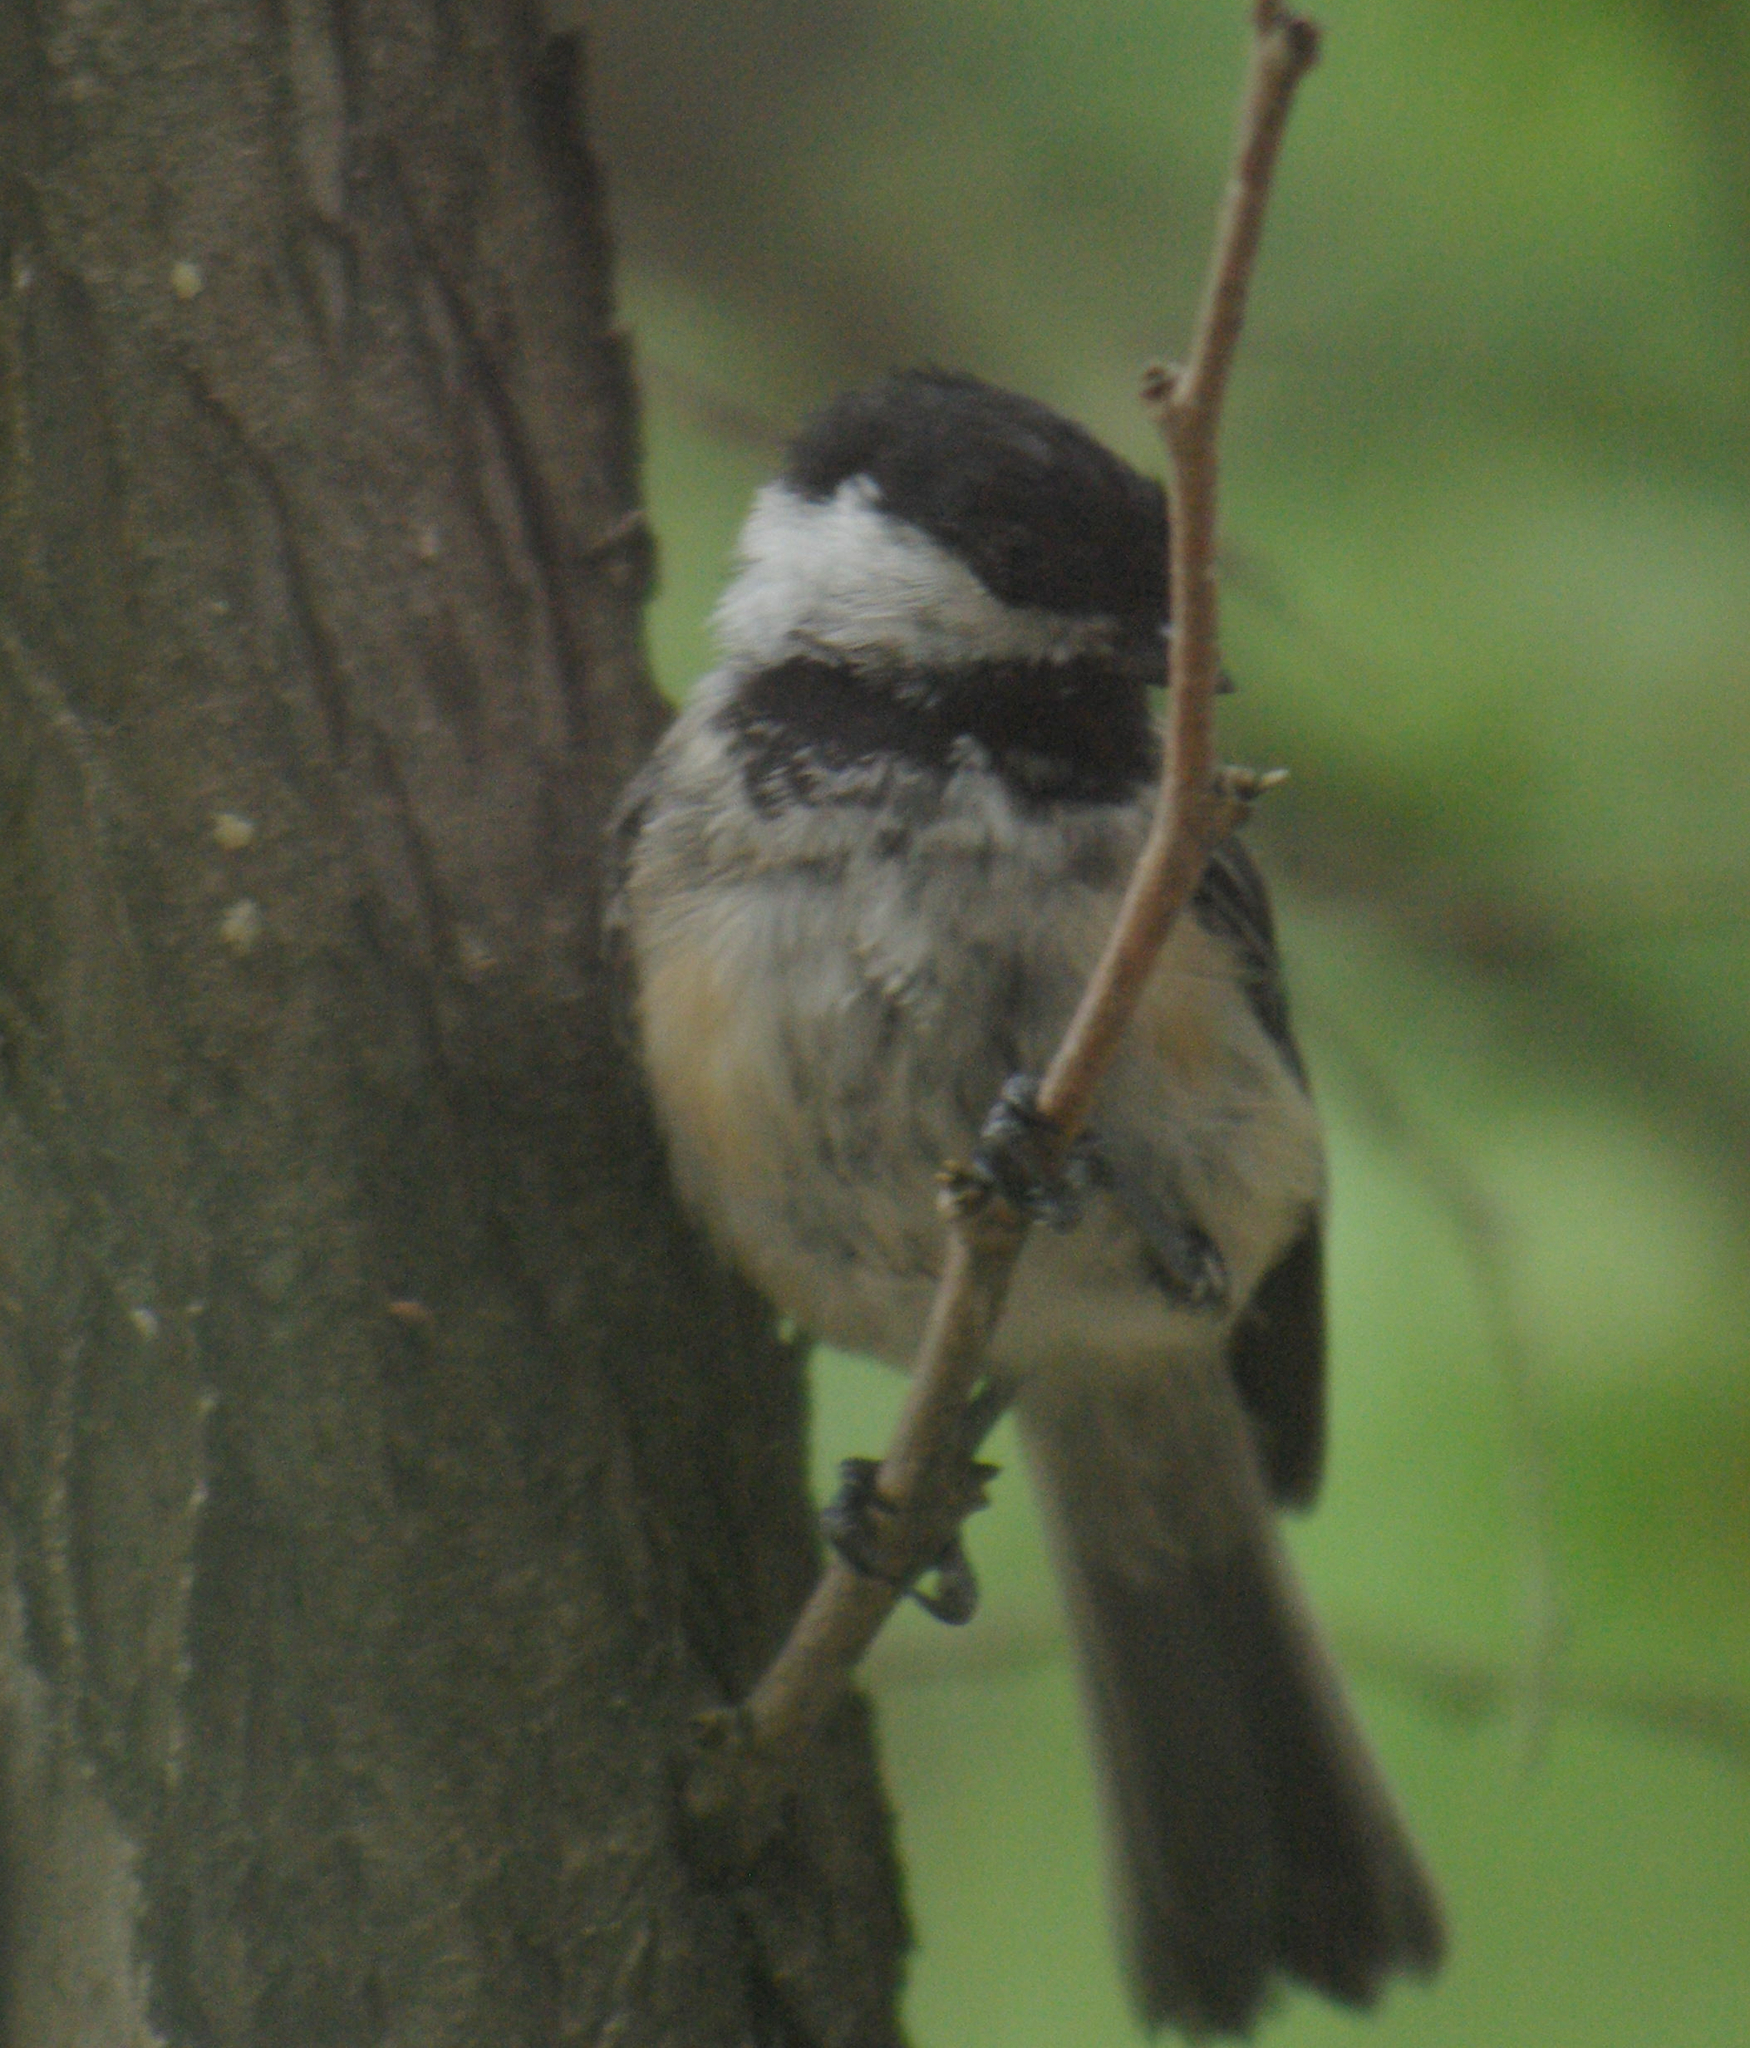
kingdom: Animalia
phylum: Chordata
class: Aves
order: Passeriformes
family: Paridae
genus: Poecile
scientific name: Poecile atricapillus
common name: Black-capped chickadee
